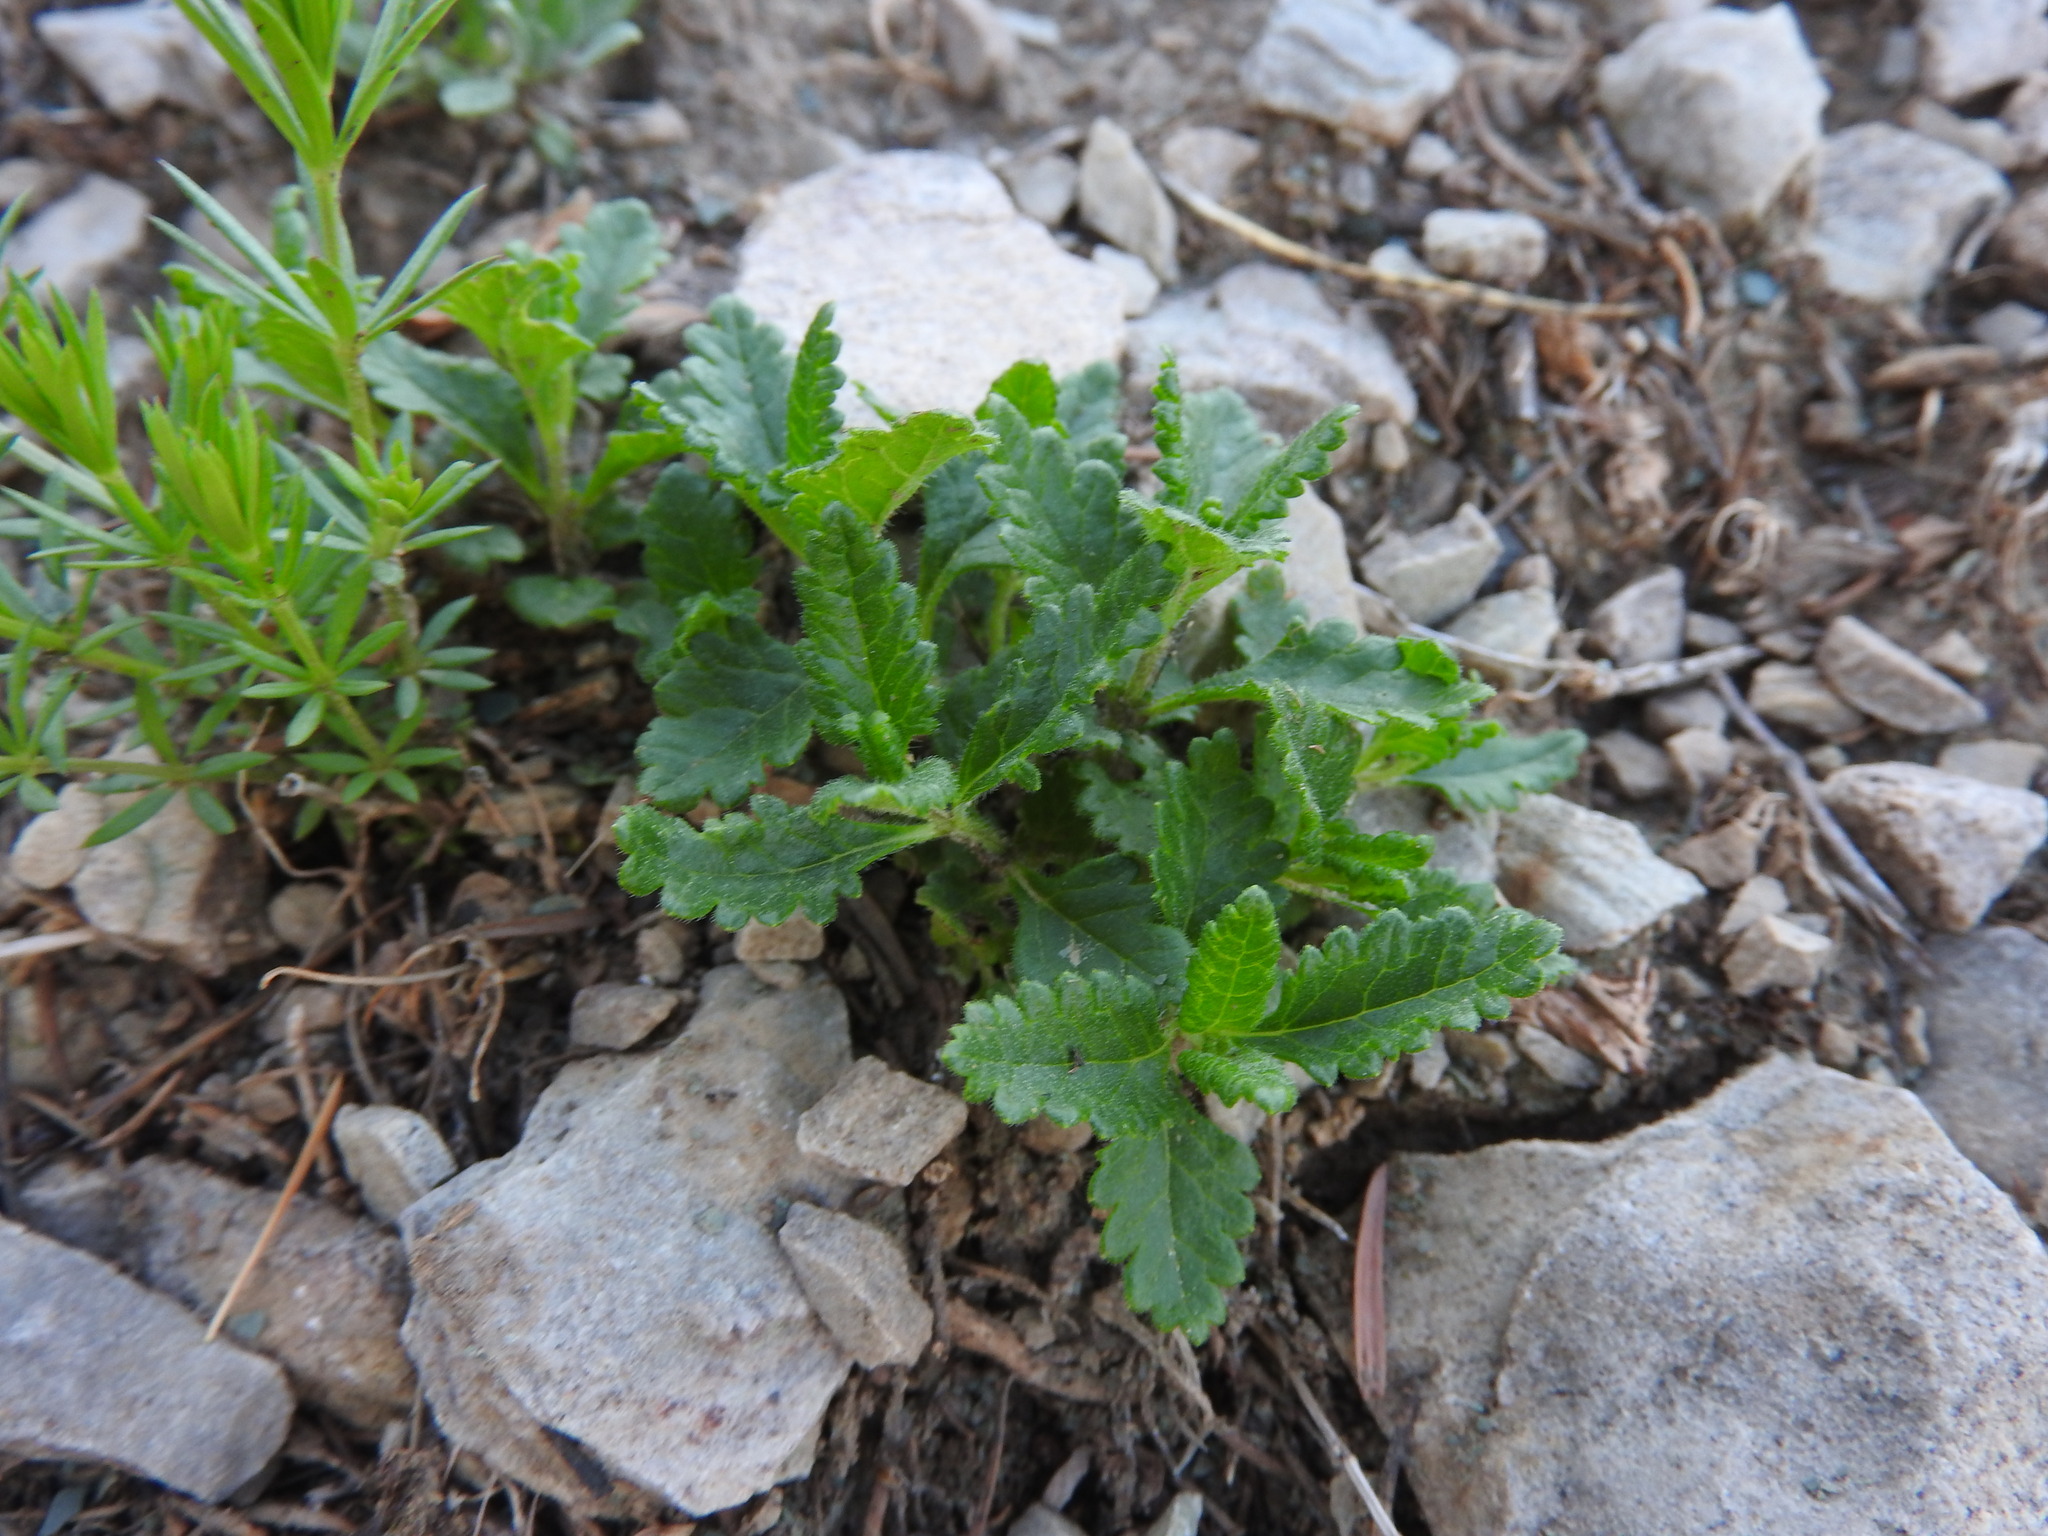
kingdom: Plantae
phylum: Tracheophyta
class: Magnoliopsida
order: Lamiales
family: Lamiaceae
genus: Teucrium
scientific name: Teucrium chamaedrys
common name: Wall germander
